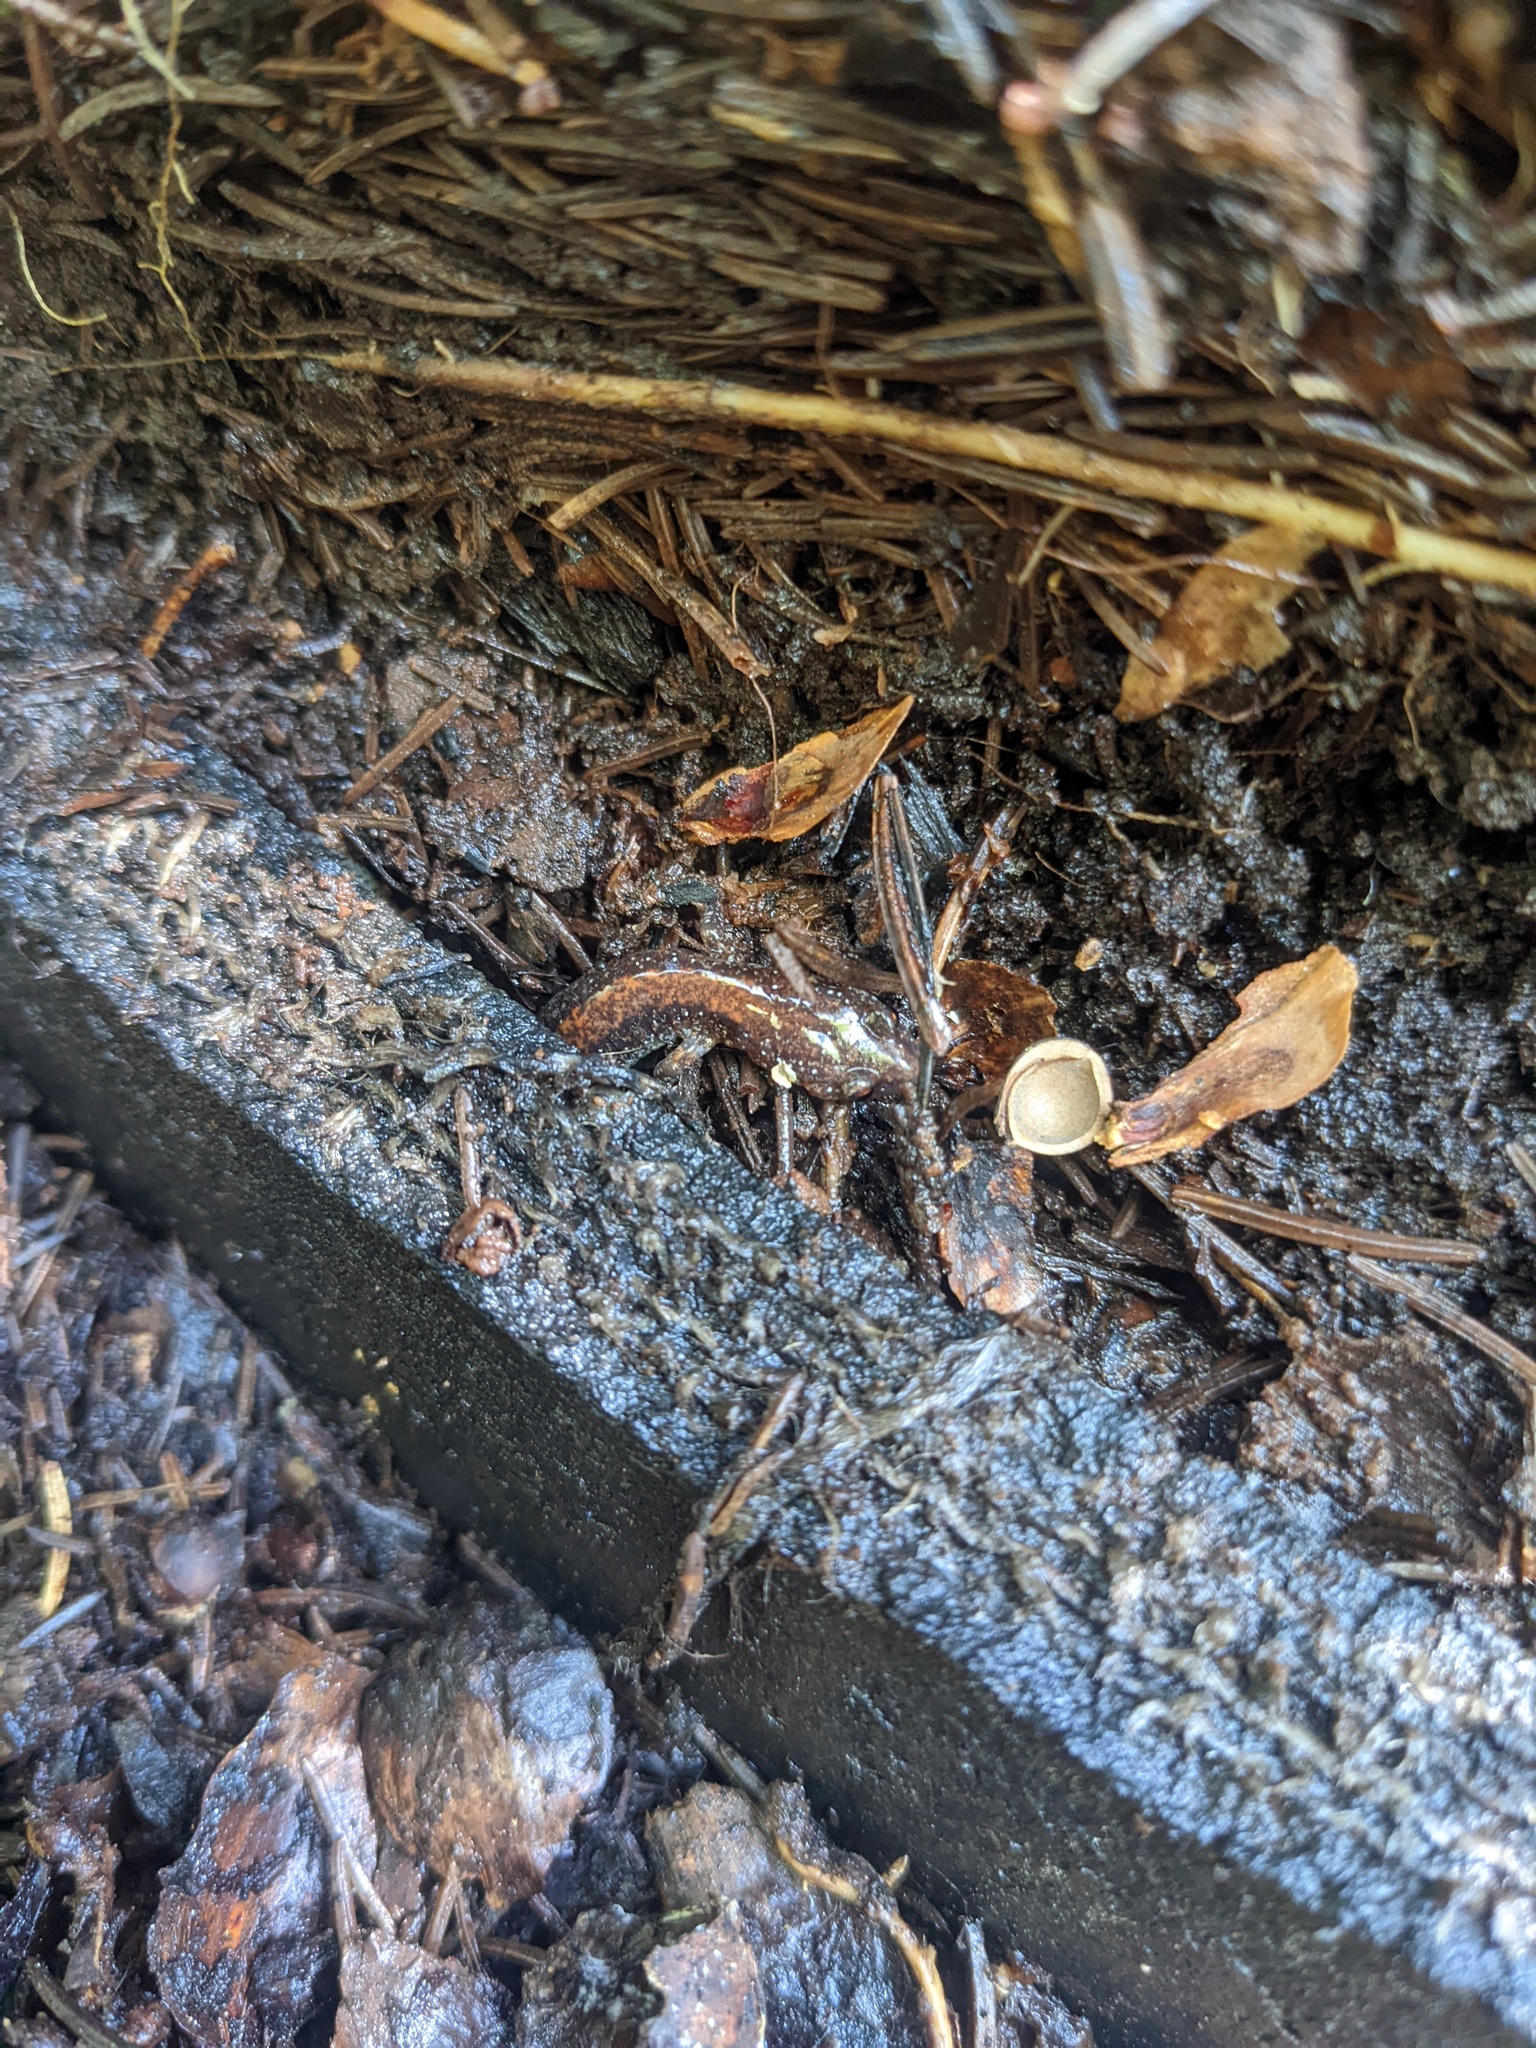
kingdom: Animalia
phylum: Chordata
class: Amphibia
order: Caudata
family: Plethodontidae
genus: Plethodon
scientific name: Plethodon cinereus
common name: Redback salamander
